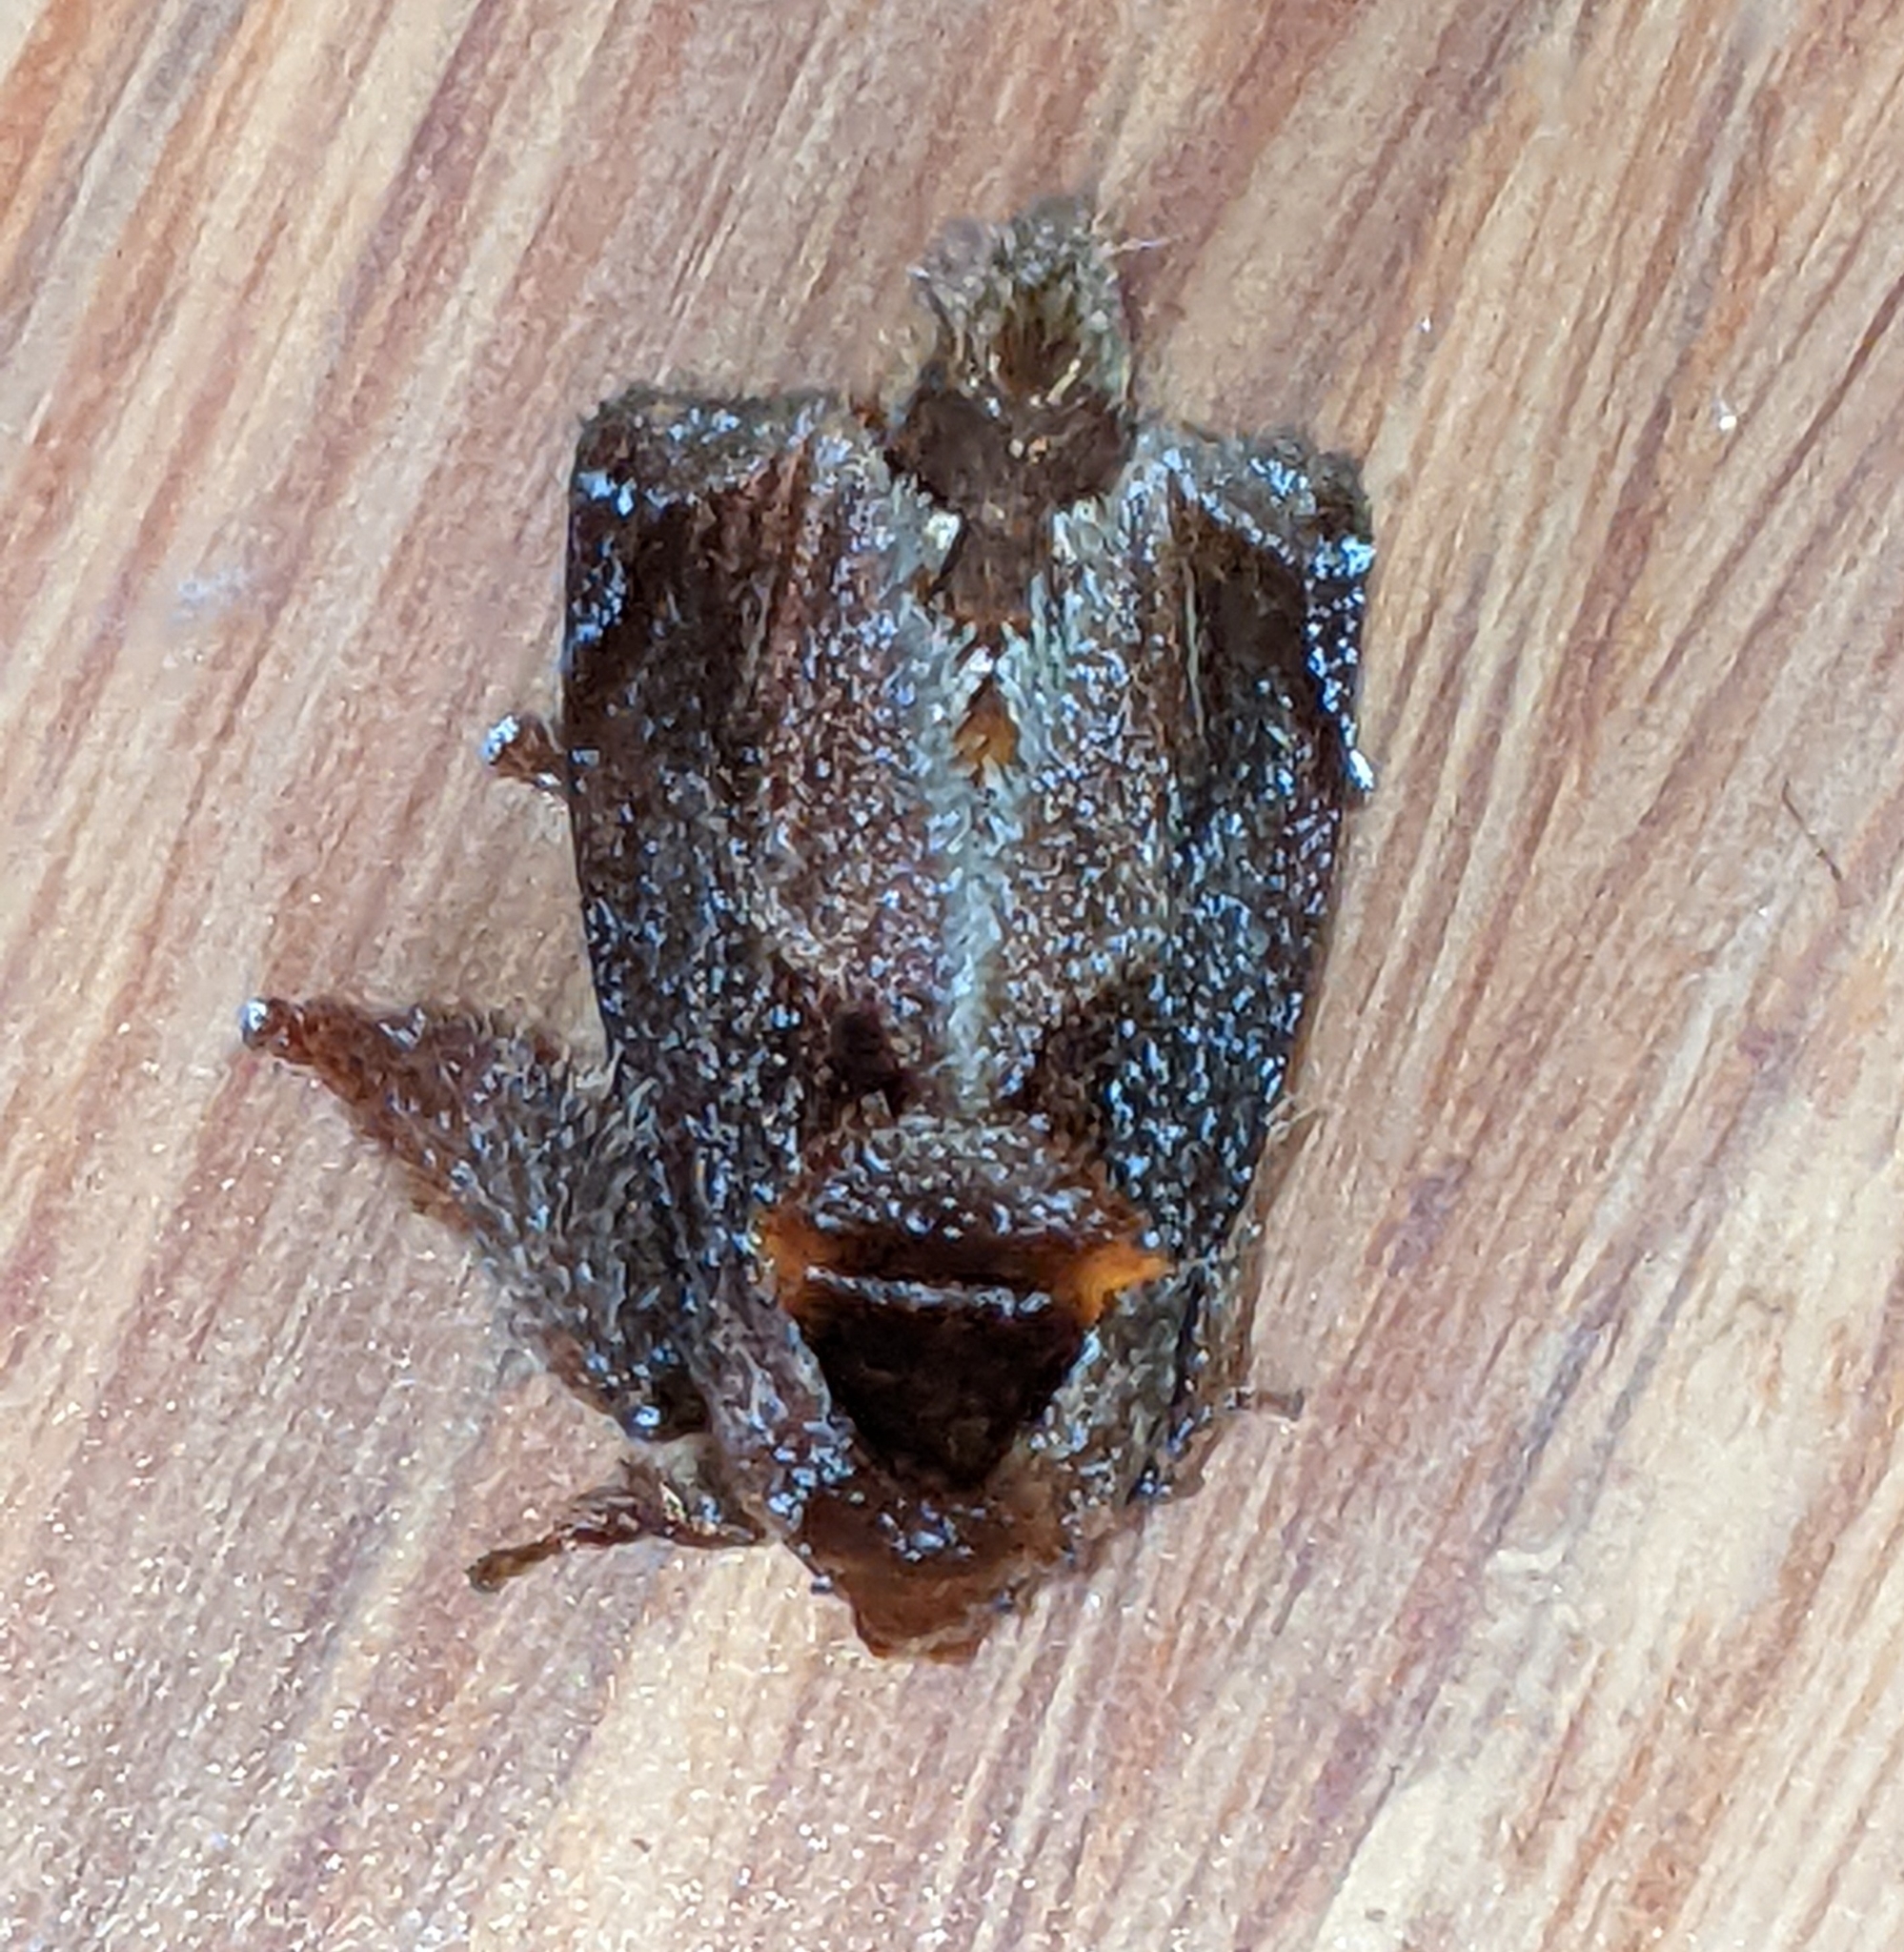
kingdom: Animalia
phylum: Arthropoda
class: Insecta
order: Lepidoptera
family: Limacodidae
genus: Euphobetron
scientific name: Euphobetron natadoides
